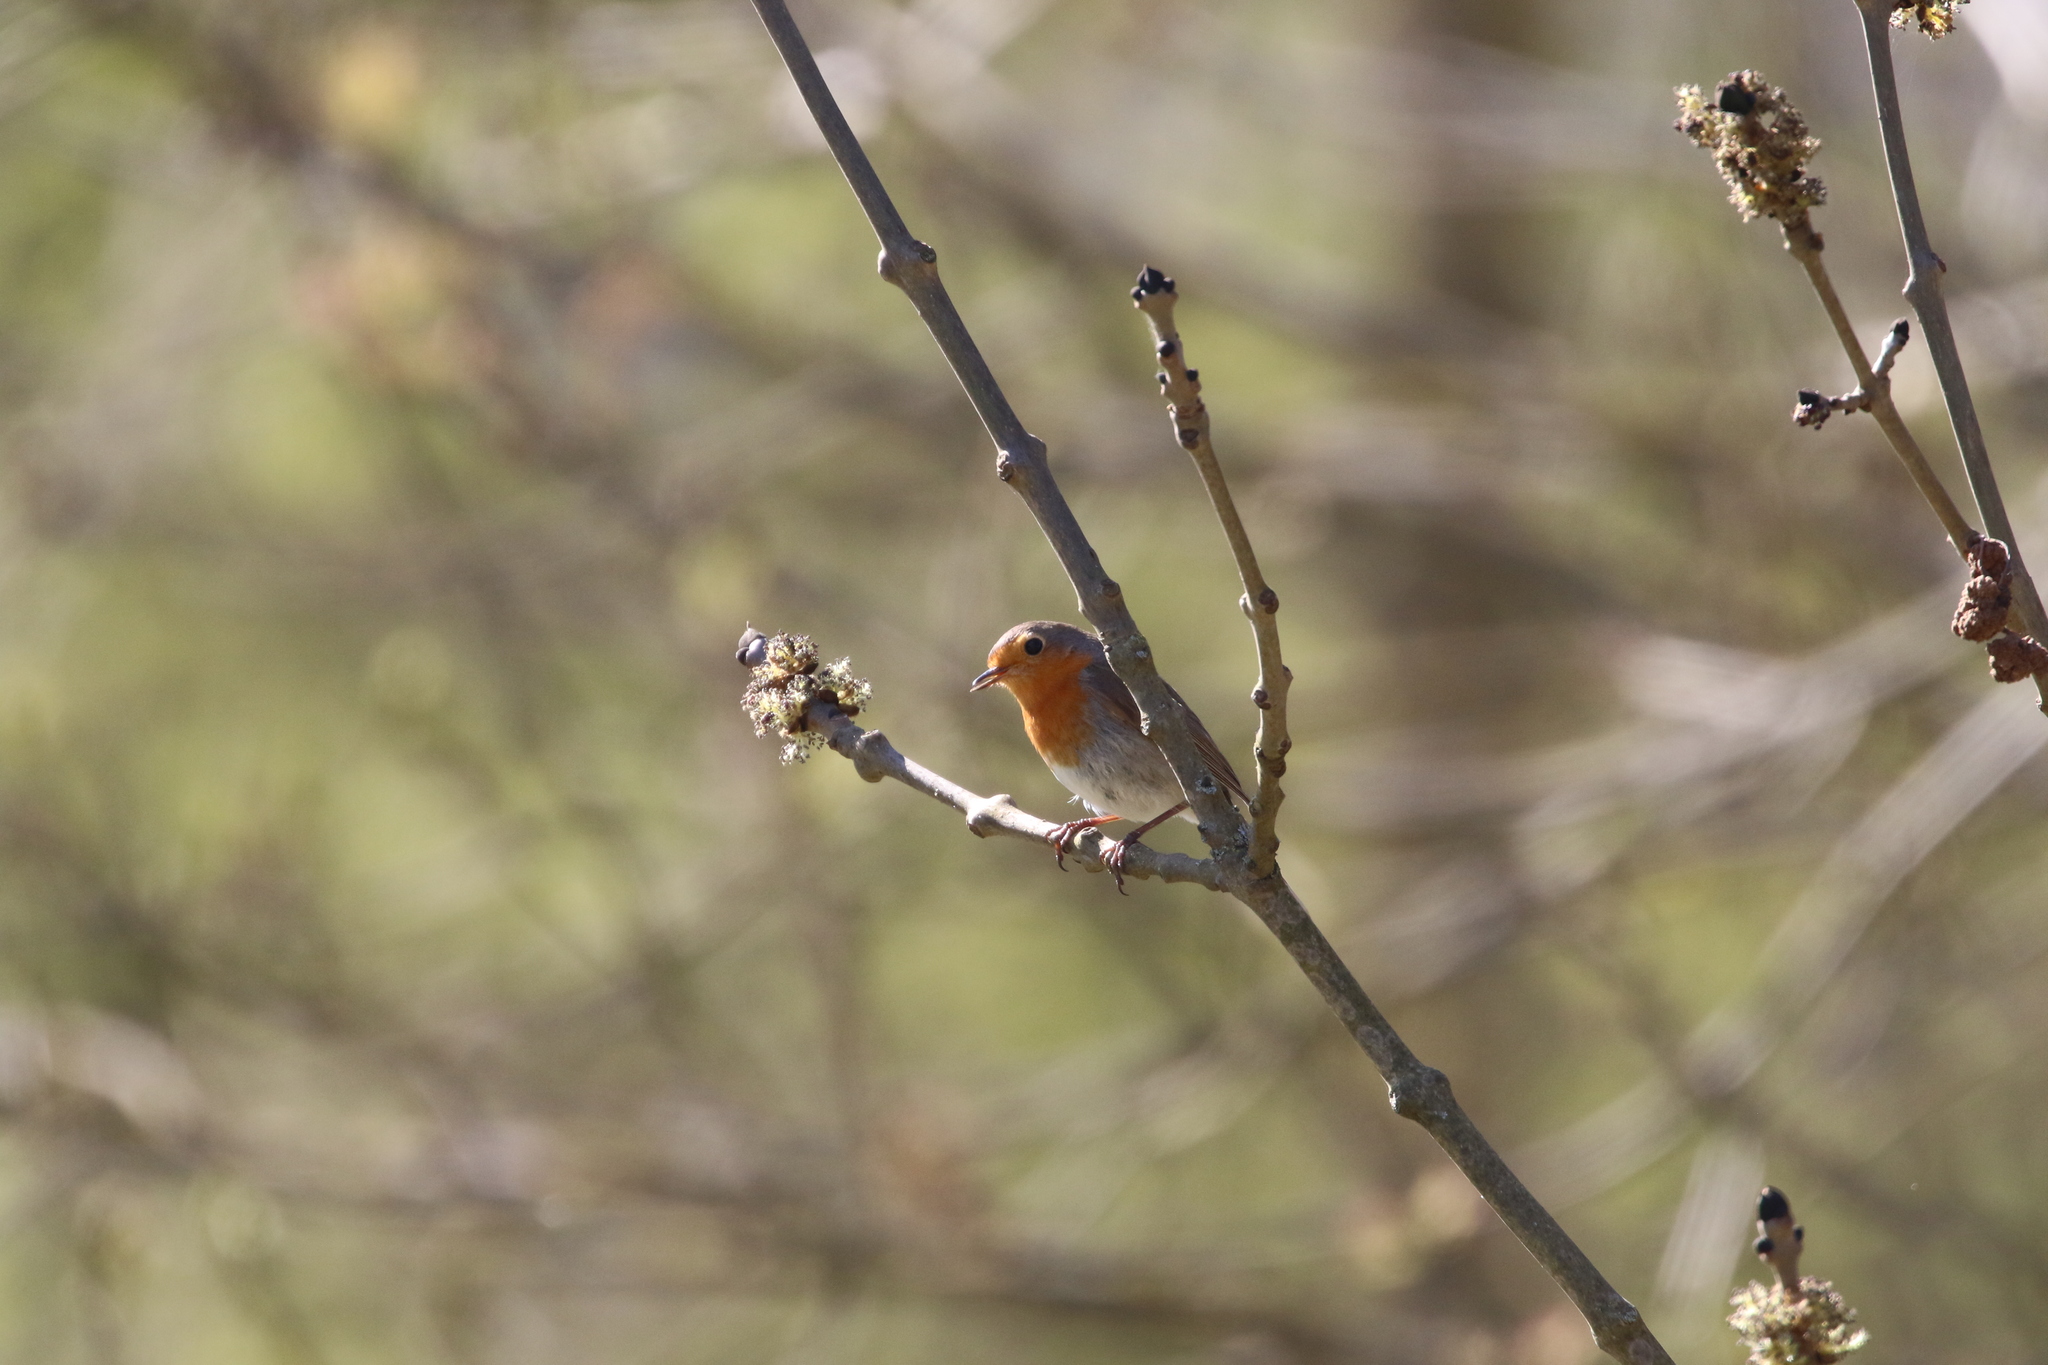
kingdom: Animalia
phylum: Chordata
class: Aves
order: Passeriformes
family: Muscicapidae
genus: Erithacus
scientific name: Erithacus rubecula
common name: European robin
